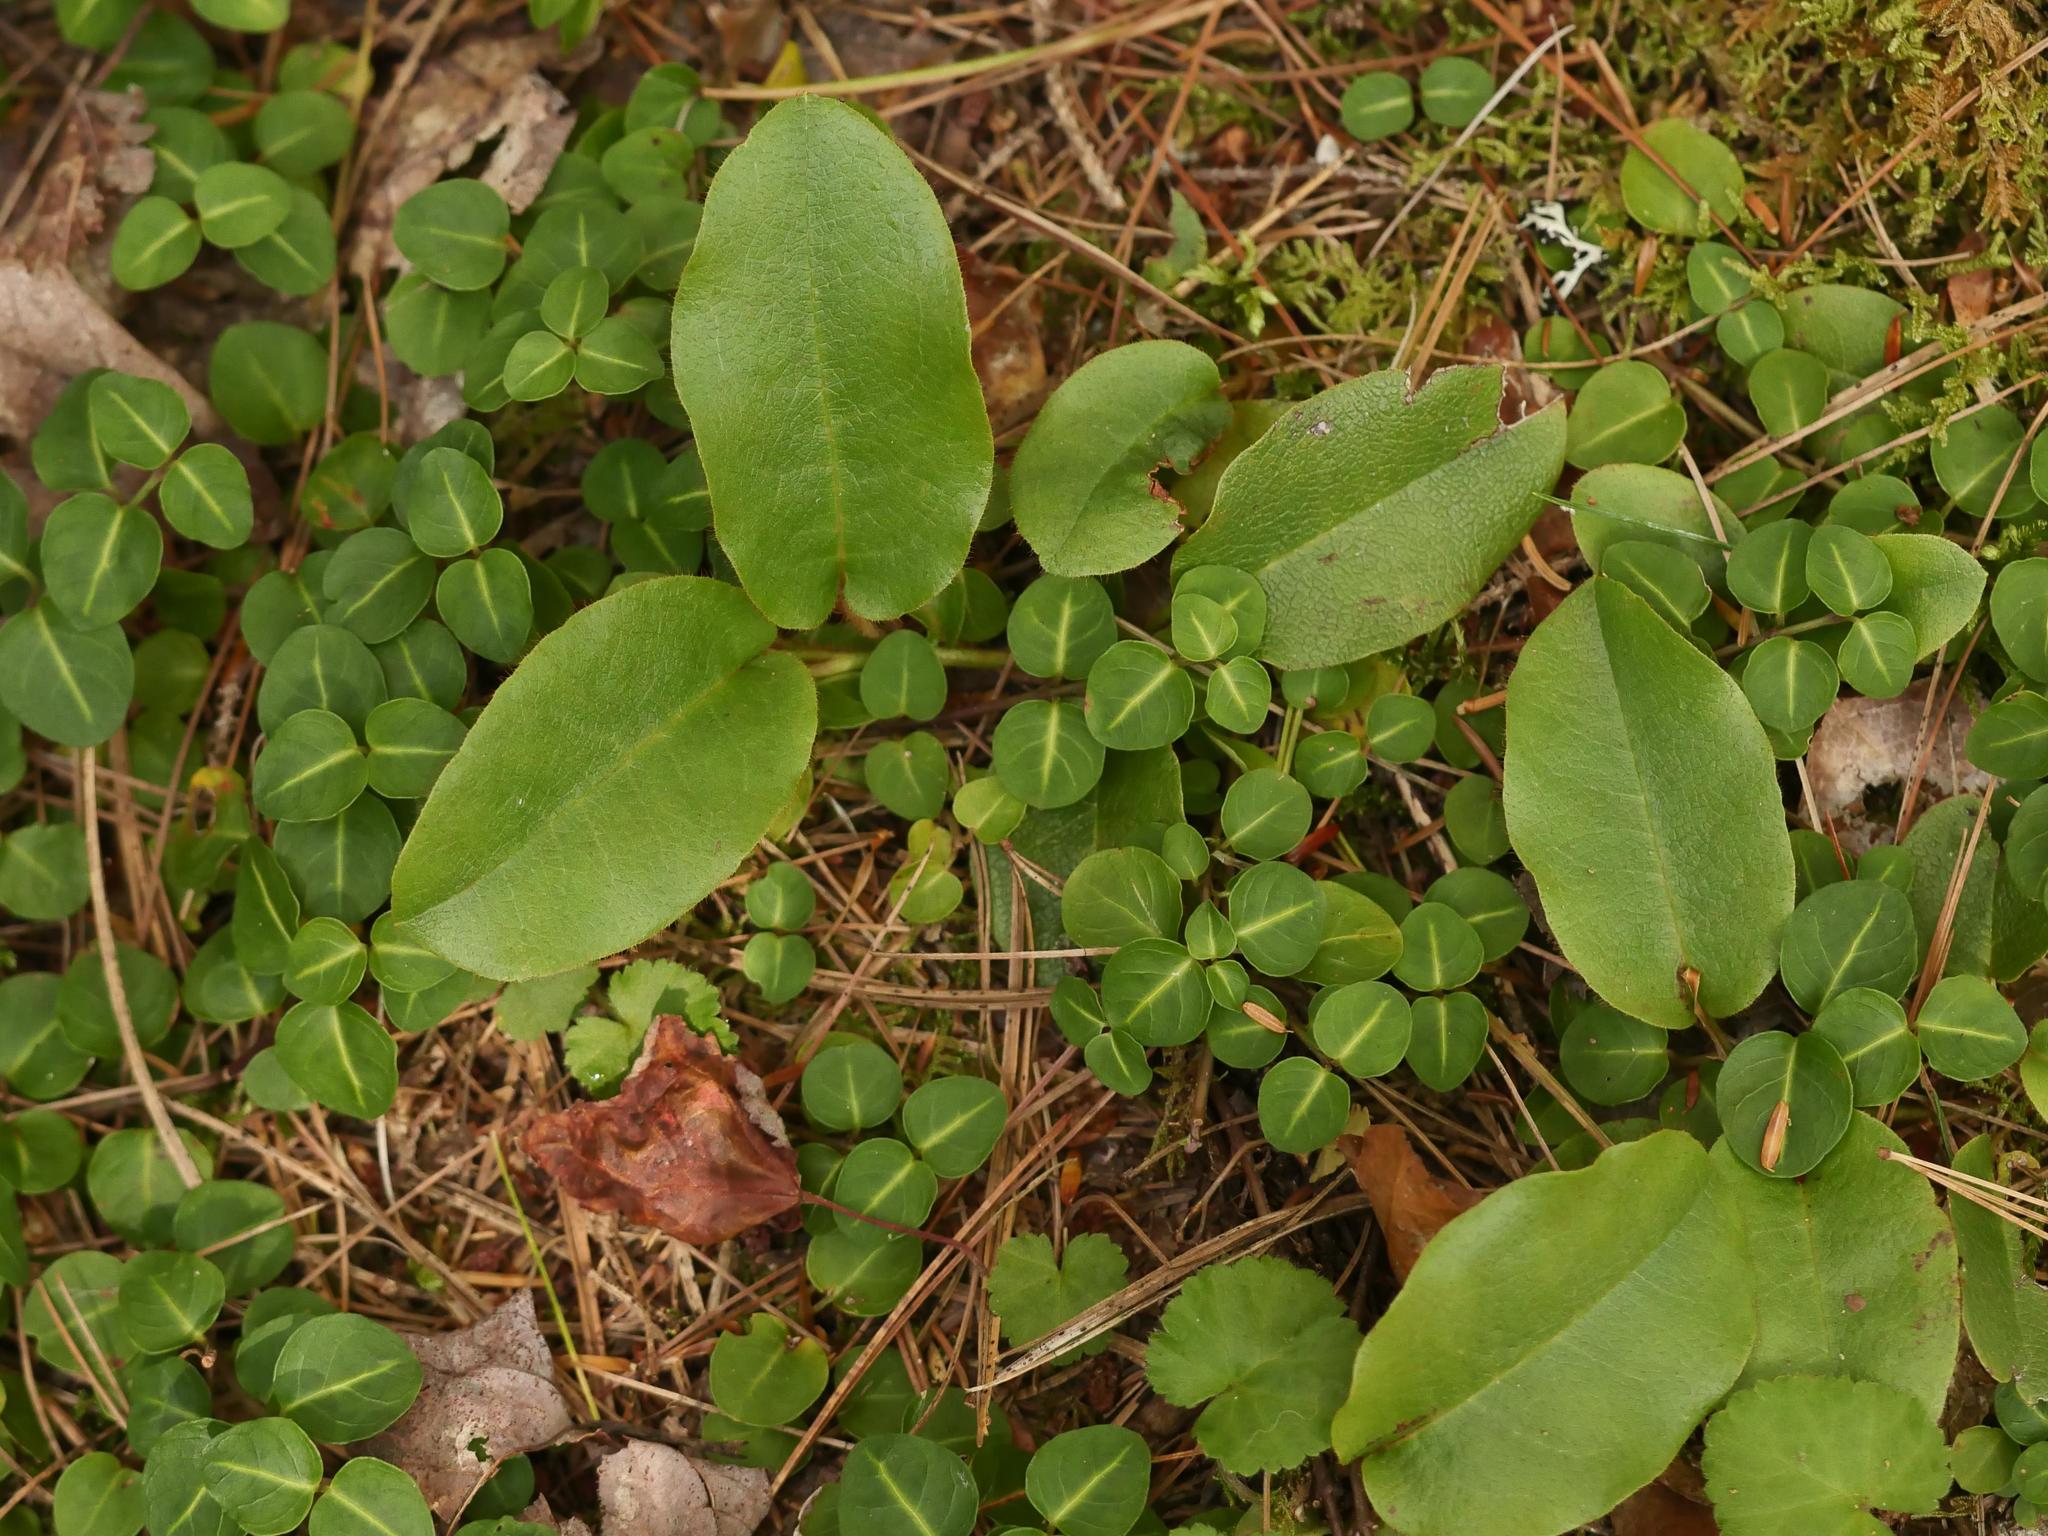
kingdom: Plantae
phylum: Tracheophyta
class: Magnoliopsida
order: Ericales
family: Ericaceae
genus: Epigaea
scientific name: Epigaea repens
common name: Gravelroot
